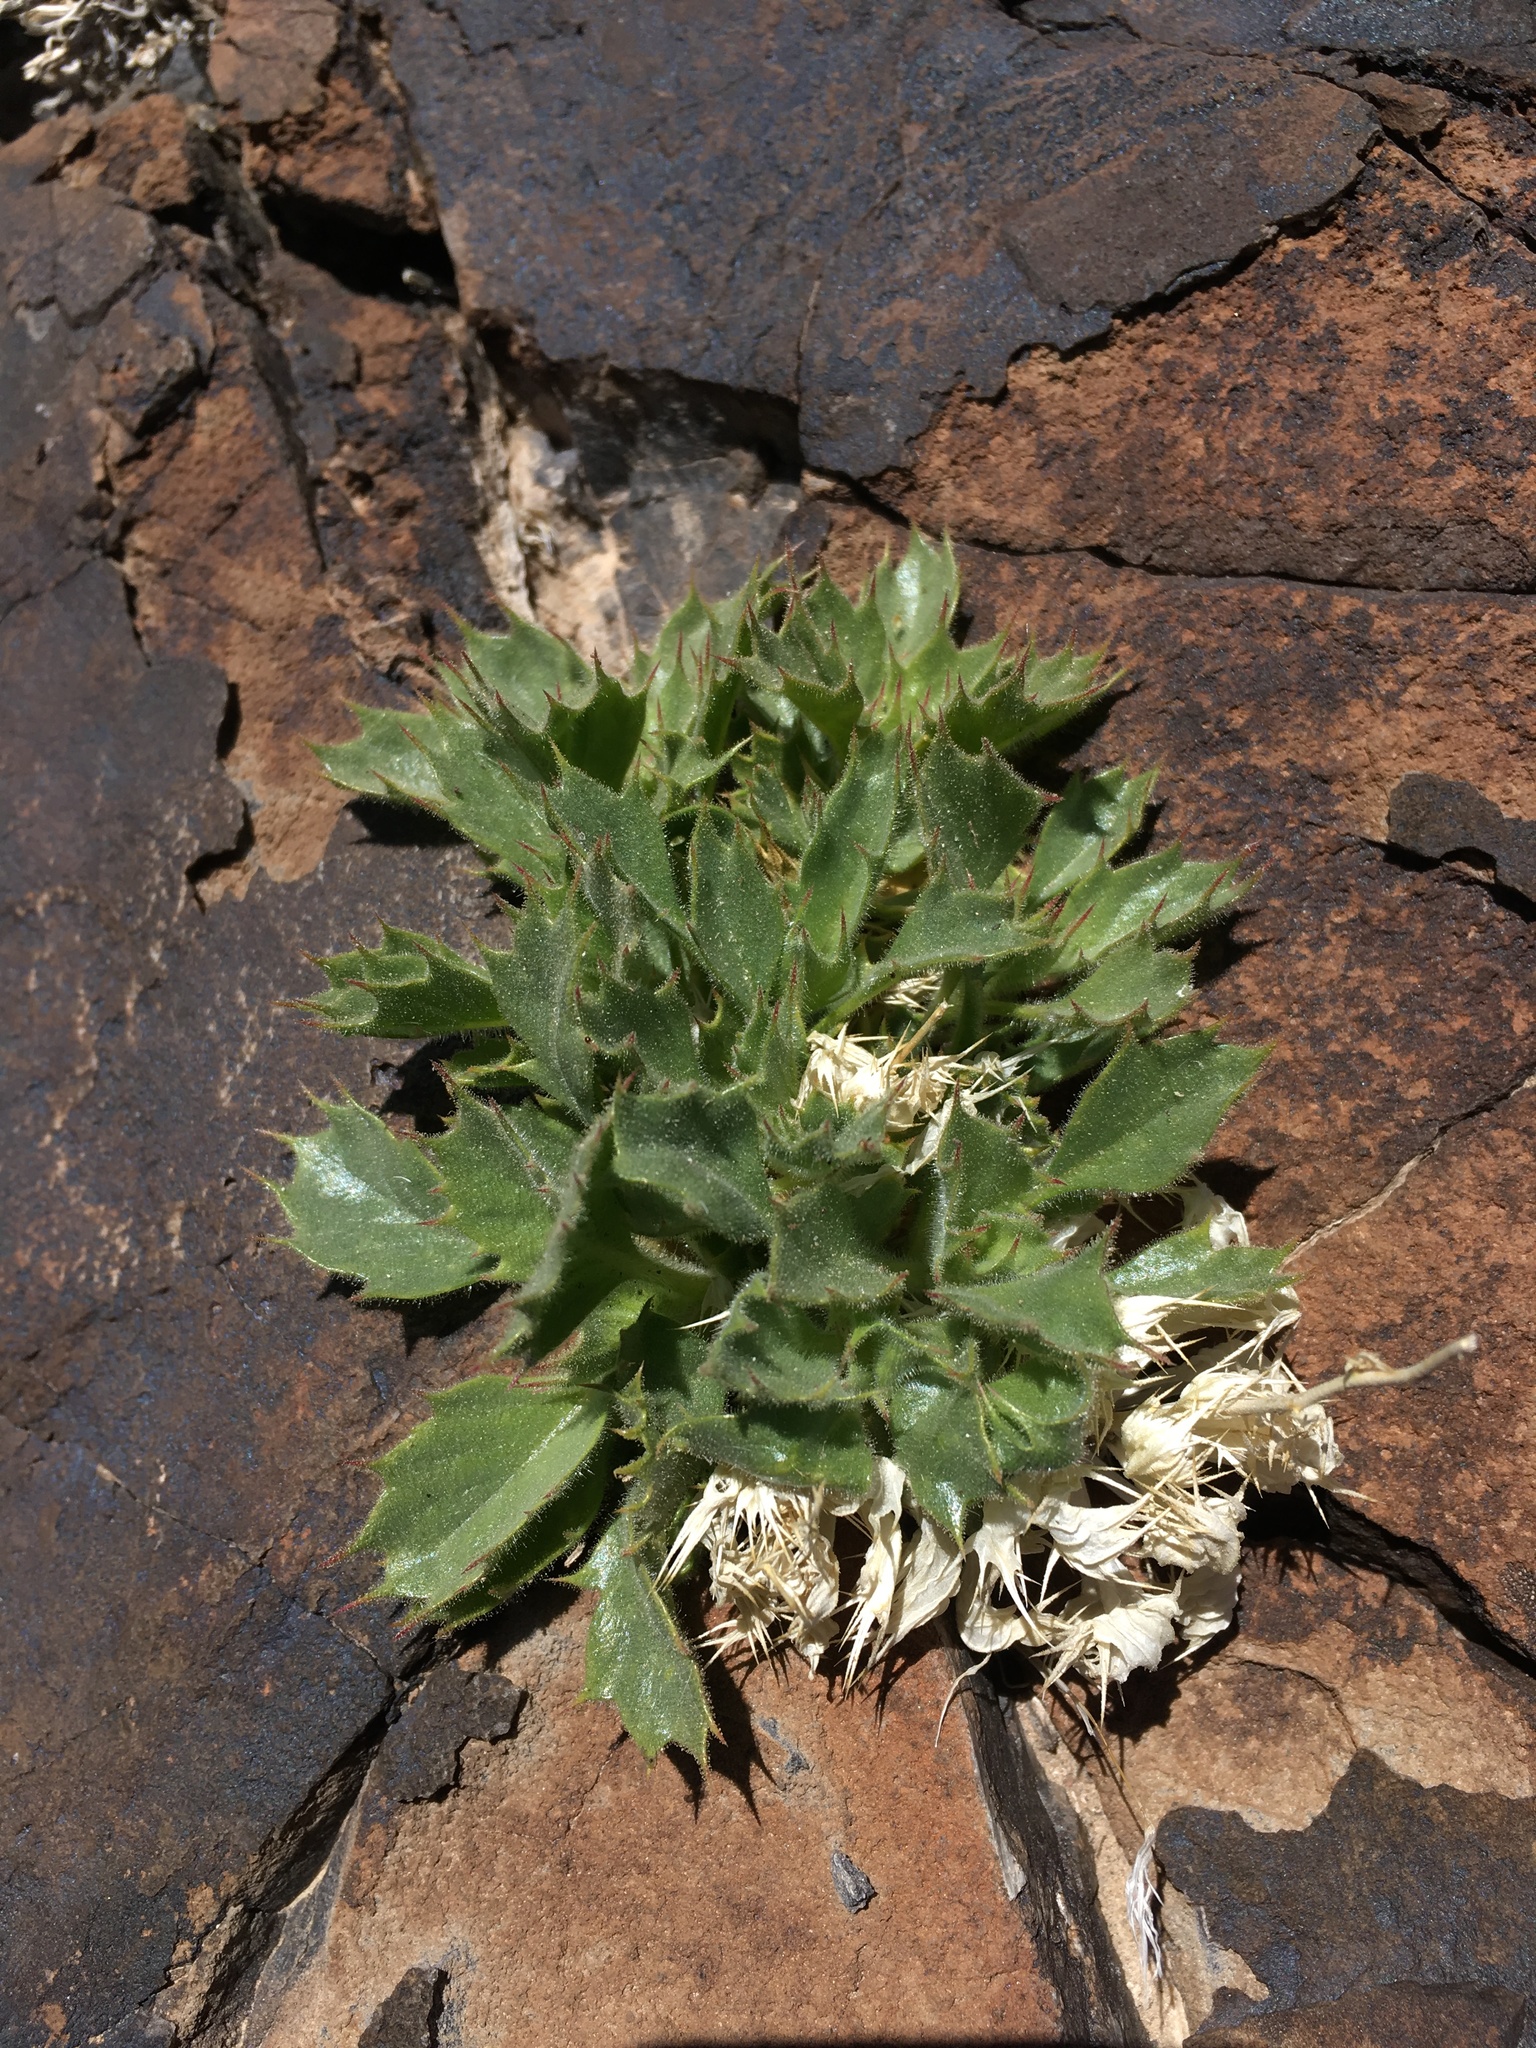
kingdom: Plantae
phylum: Tracheophyta
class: Magnoliopsida
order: Ericales
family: Polemoniaceae
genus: Aliciella
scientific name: Aliciella ripleyi
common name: Ripley's gilia
